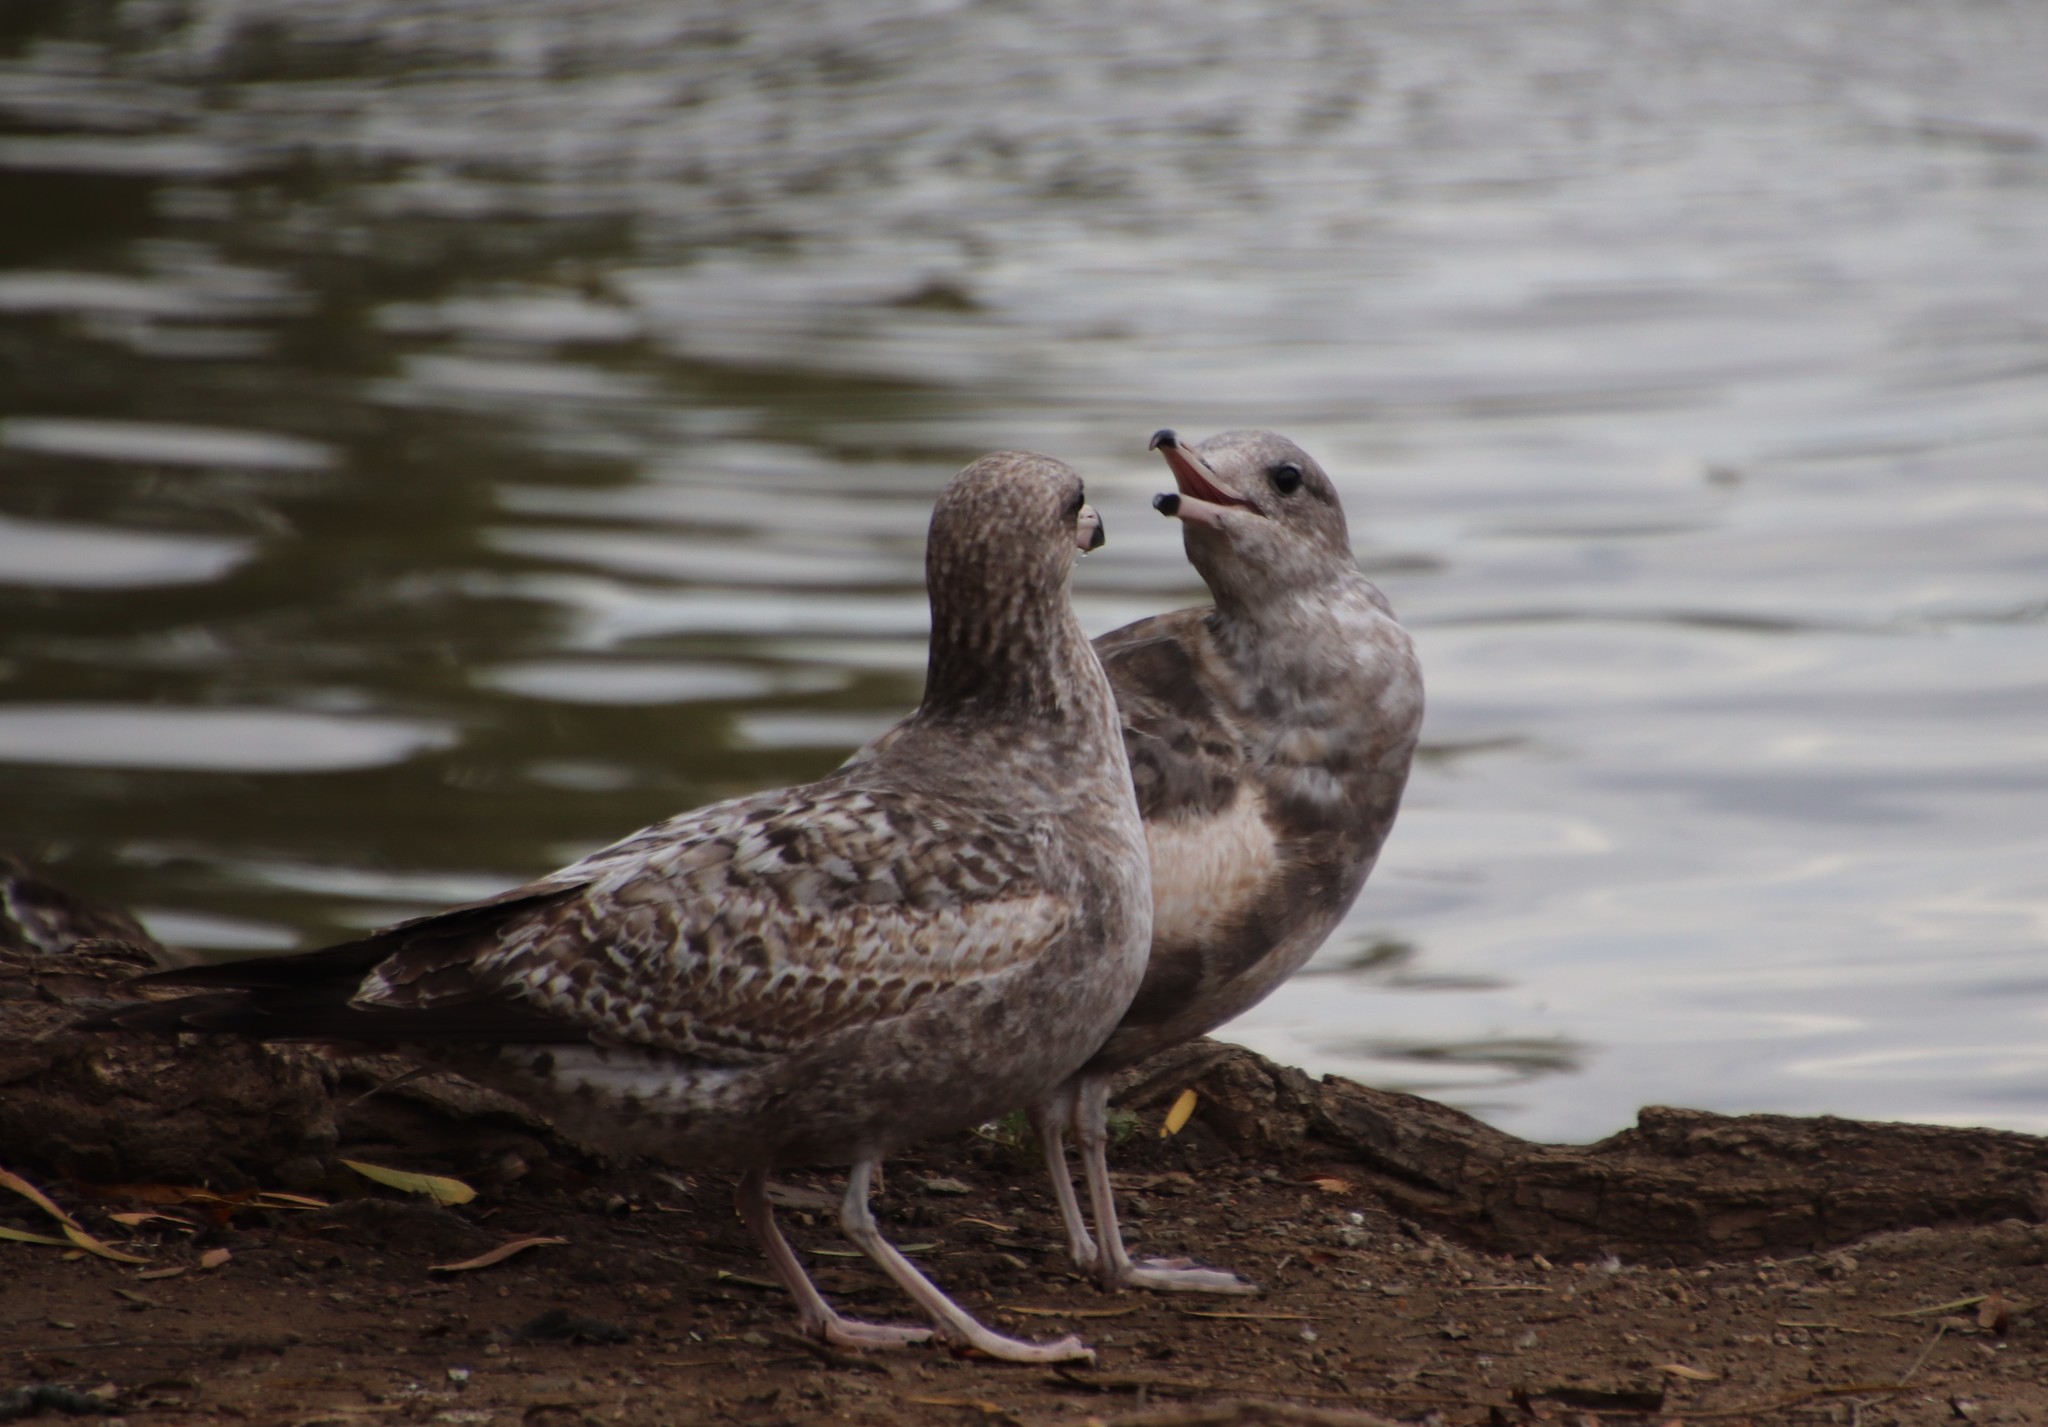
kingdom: Animalia
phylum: Chordata
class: Aves
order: Charadriiformes
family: Laridae
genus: Larus
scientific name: Larus californicus
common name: California gull
